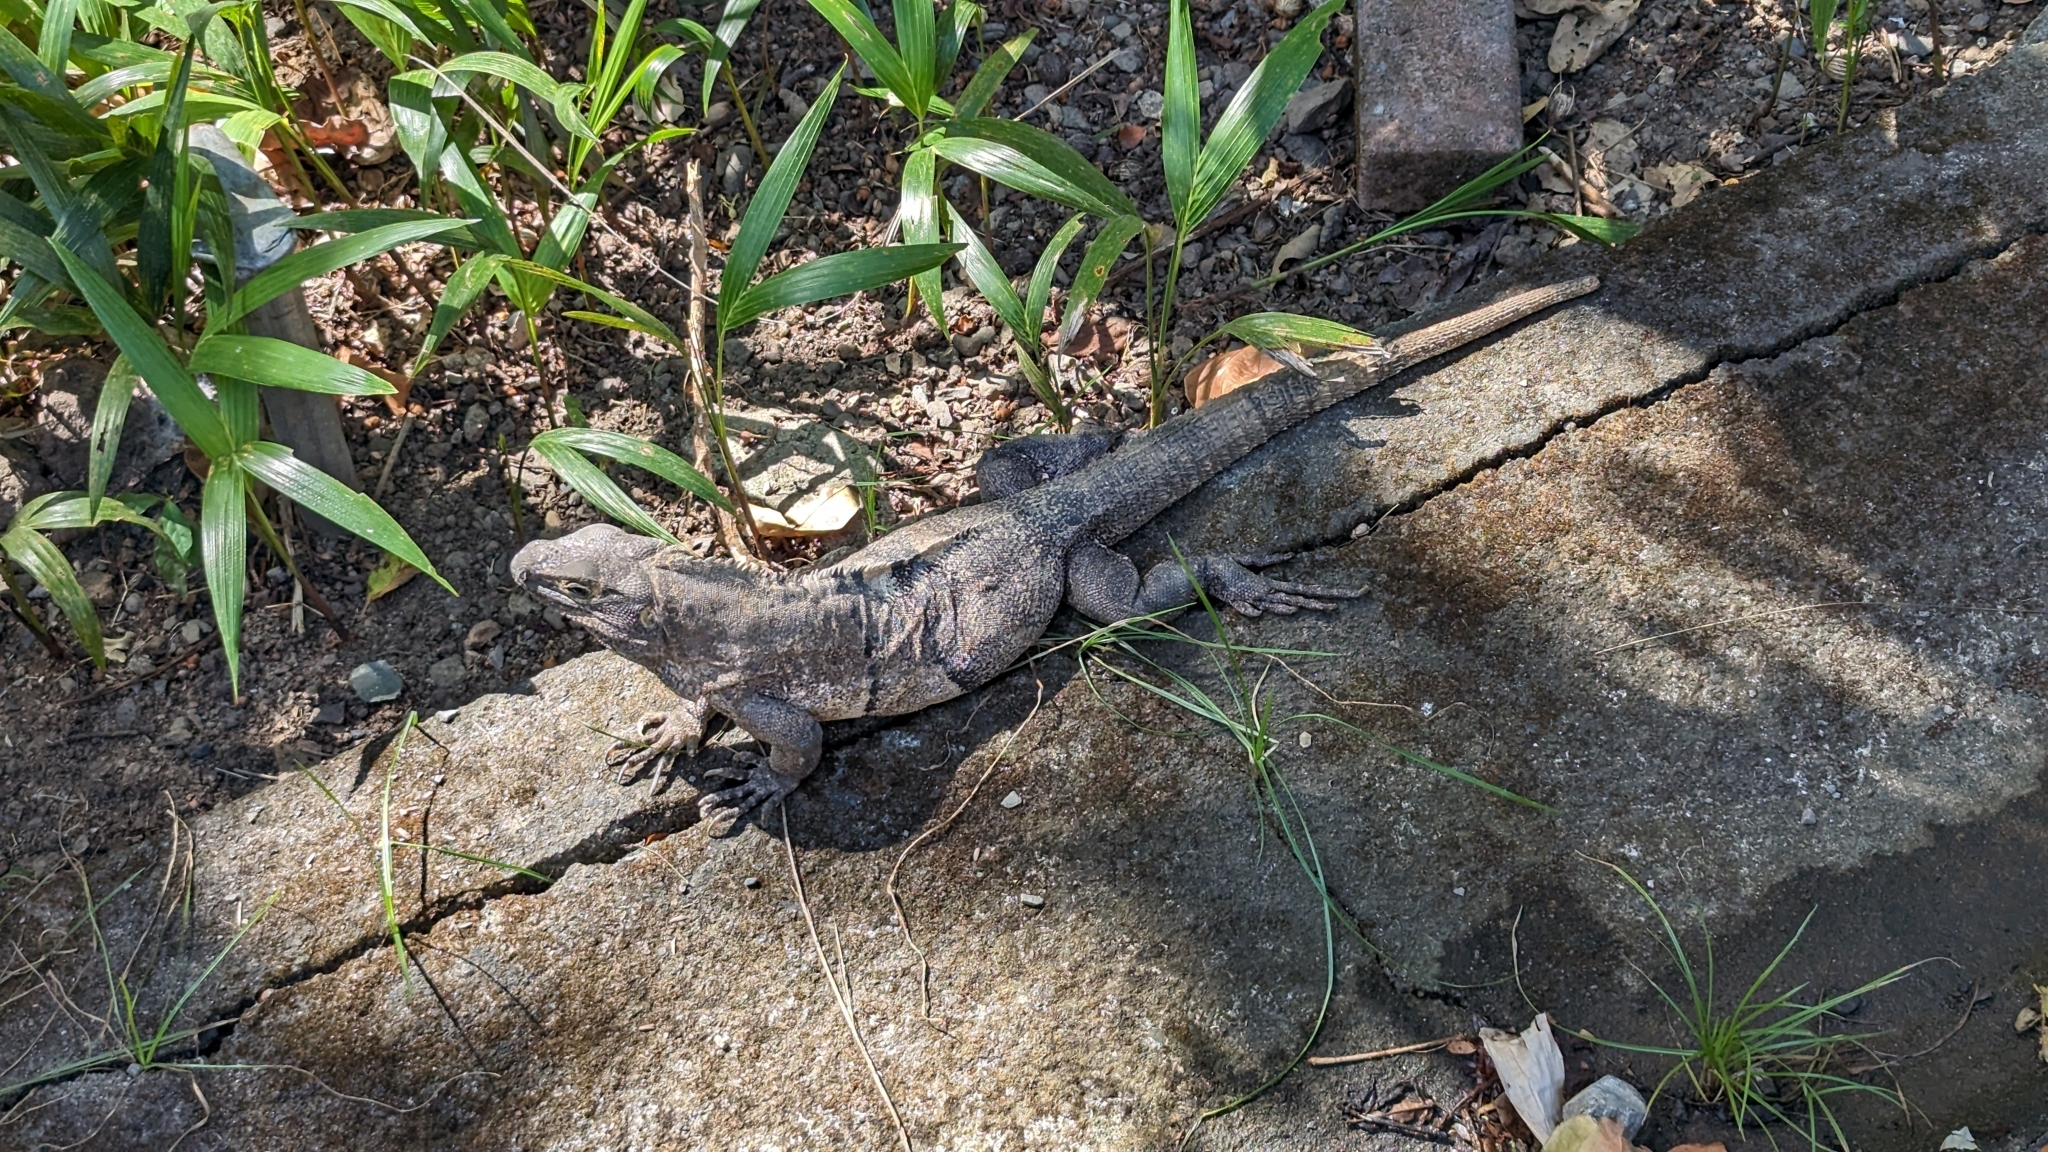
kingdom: Animalia
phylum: Chordata
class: Squamata
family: Iguanidae
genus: Ctenosaura
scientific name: Ctenosaura similis
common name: Black spiny-tailed iguana
